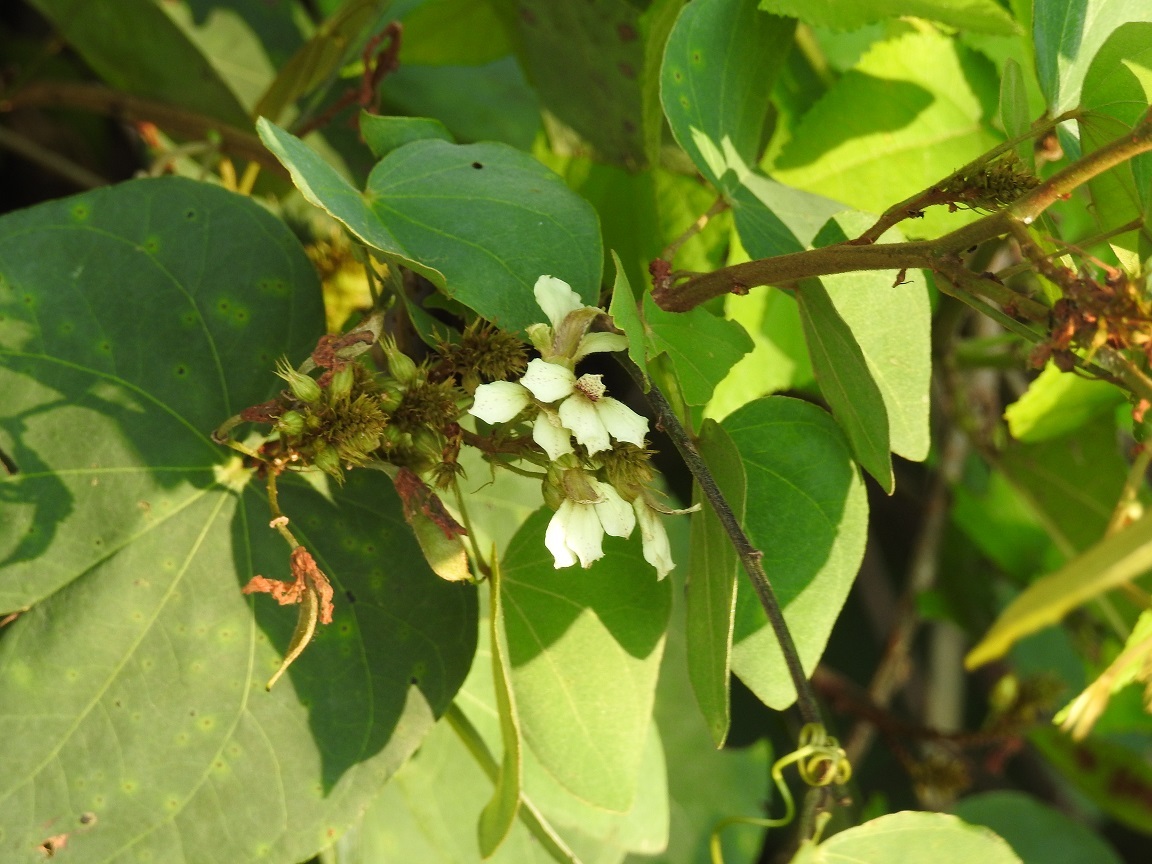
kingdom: Plantae
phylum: Tracheophyta
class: Magnoliopsida
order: Fabales
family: Fabaceae
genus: Schnella
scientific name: Schnella glabra
